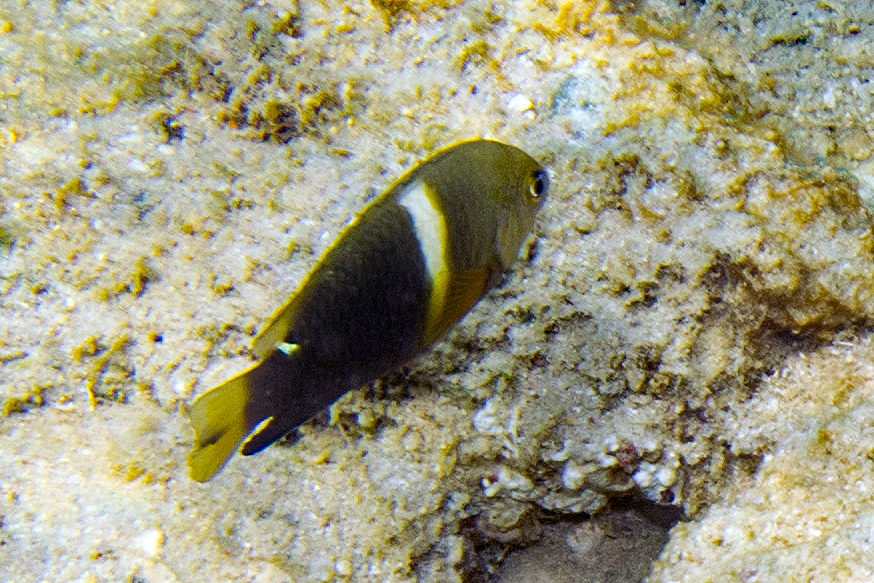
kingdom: Animalia
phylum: Chordata
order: Perciformes
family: Pomacentridae
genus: Plectroglyphidodon
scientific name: Plectroglyphidodon leucozonus
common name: White-band damsel
